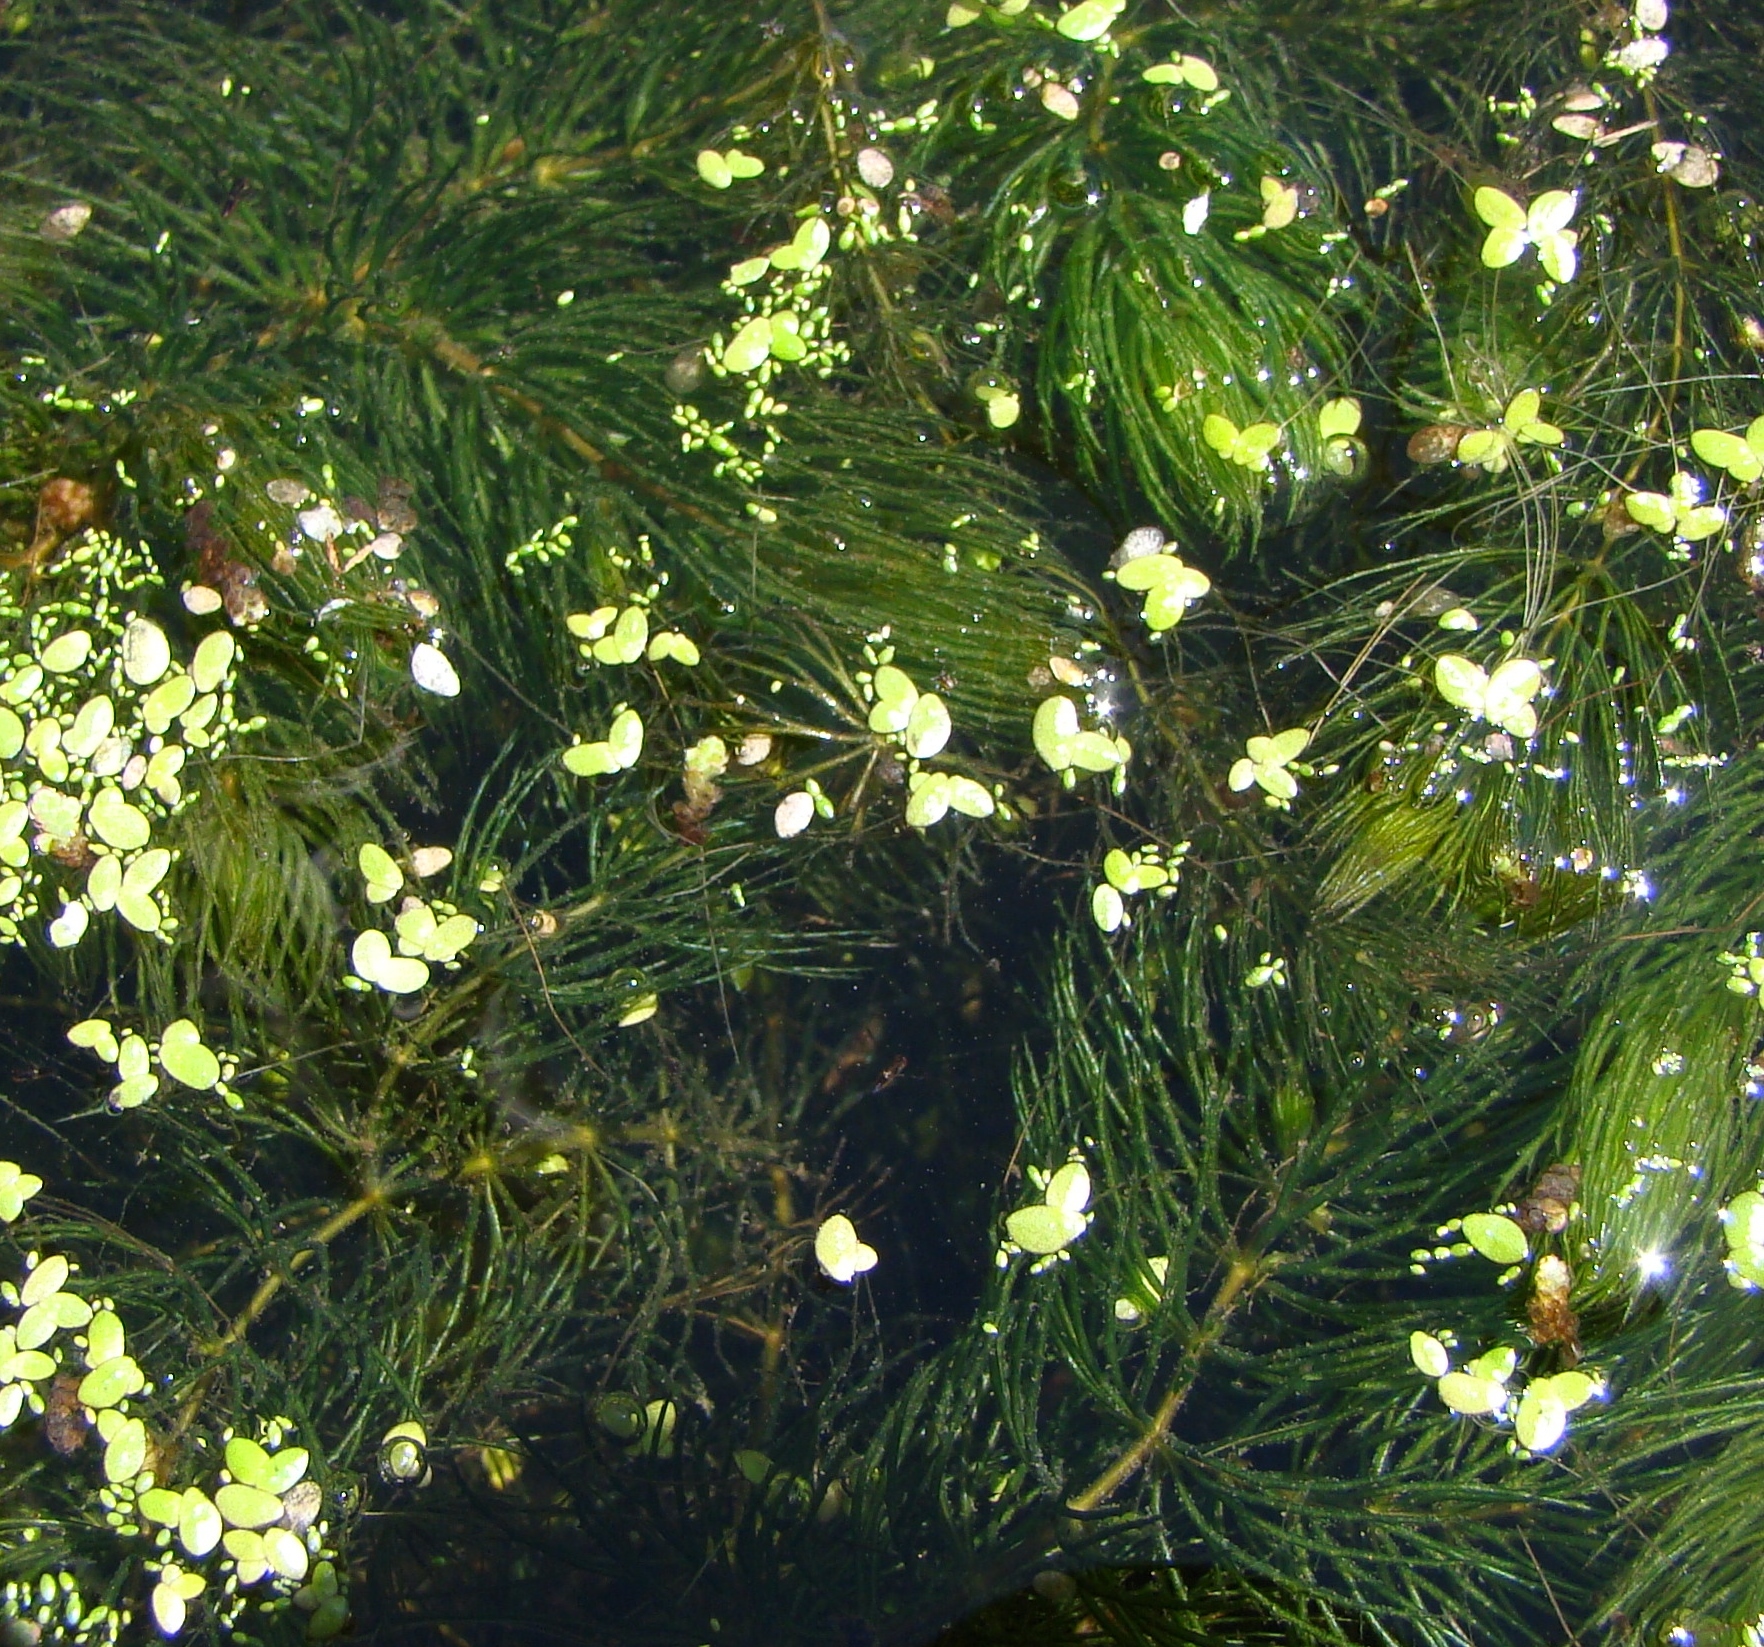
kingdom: Plantae
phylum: Tracheophyta
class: Magnoliopsida
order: Ceratophyllales
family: Ceratophyllaceae
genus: Ceratophyllum
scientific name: Ceratophyllum demersum
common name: Rigid hornwort
